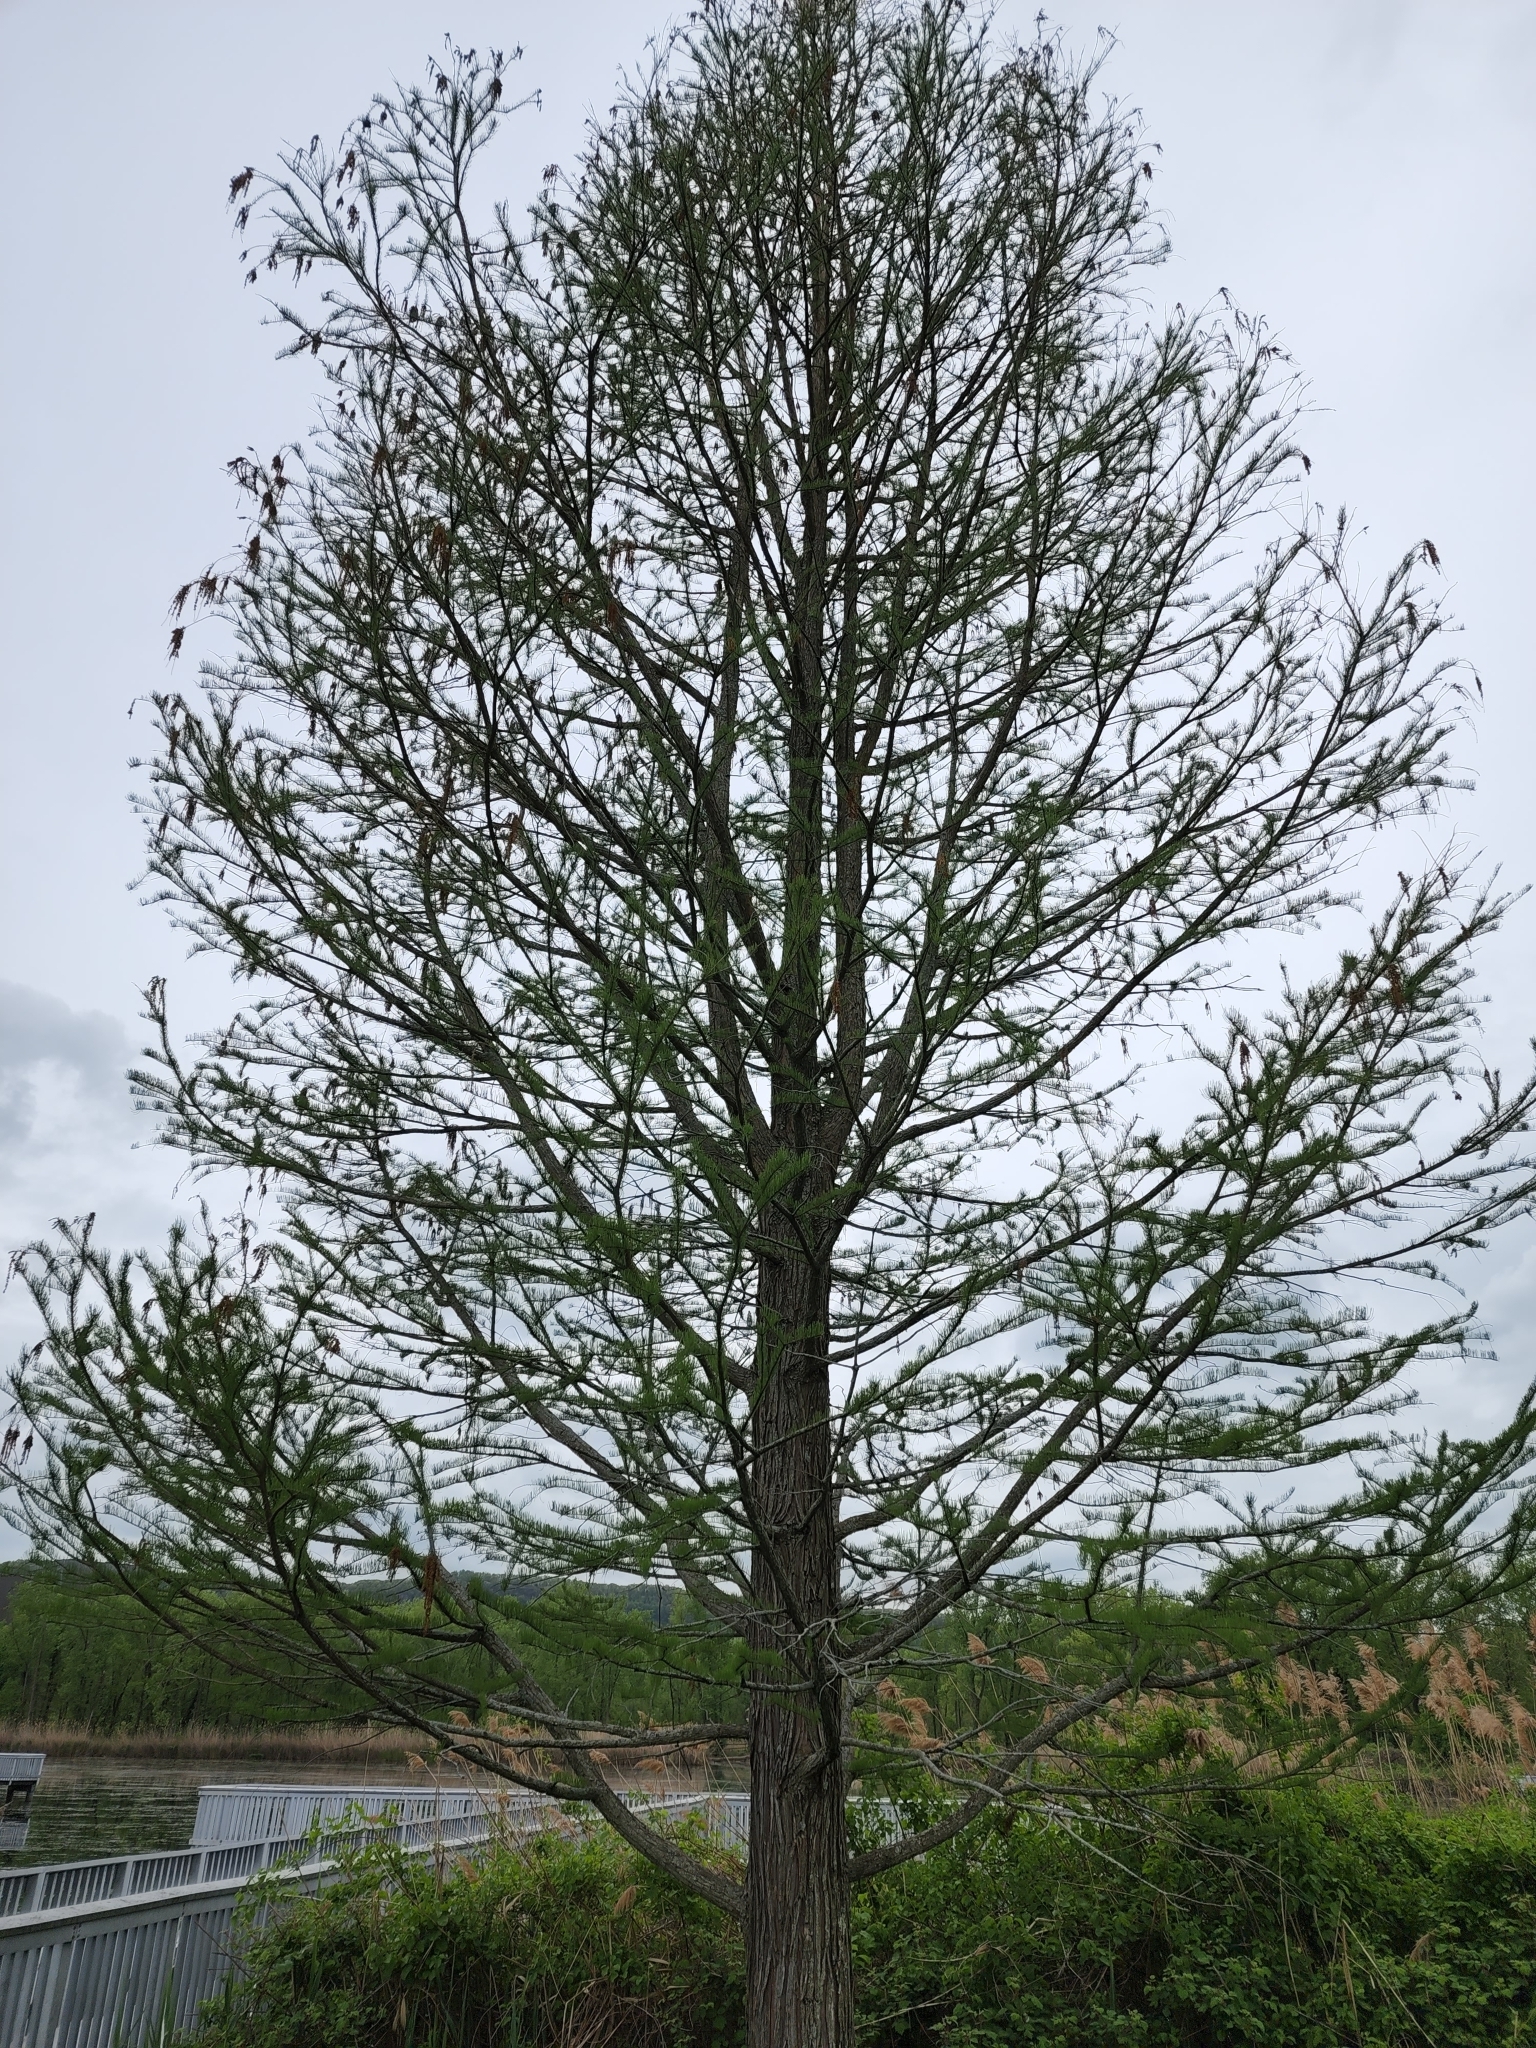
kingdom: Plantae
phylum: Tracheophyta
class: Pinopsida
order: Pinales
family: Cupressaceae
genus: Taxodium
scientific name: Taxodium distichum
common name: Bald cypress
